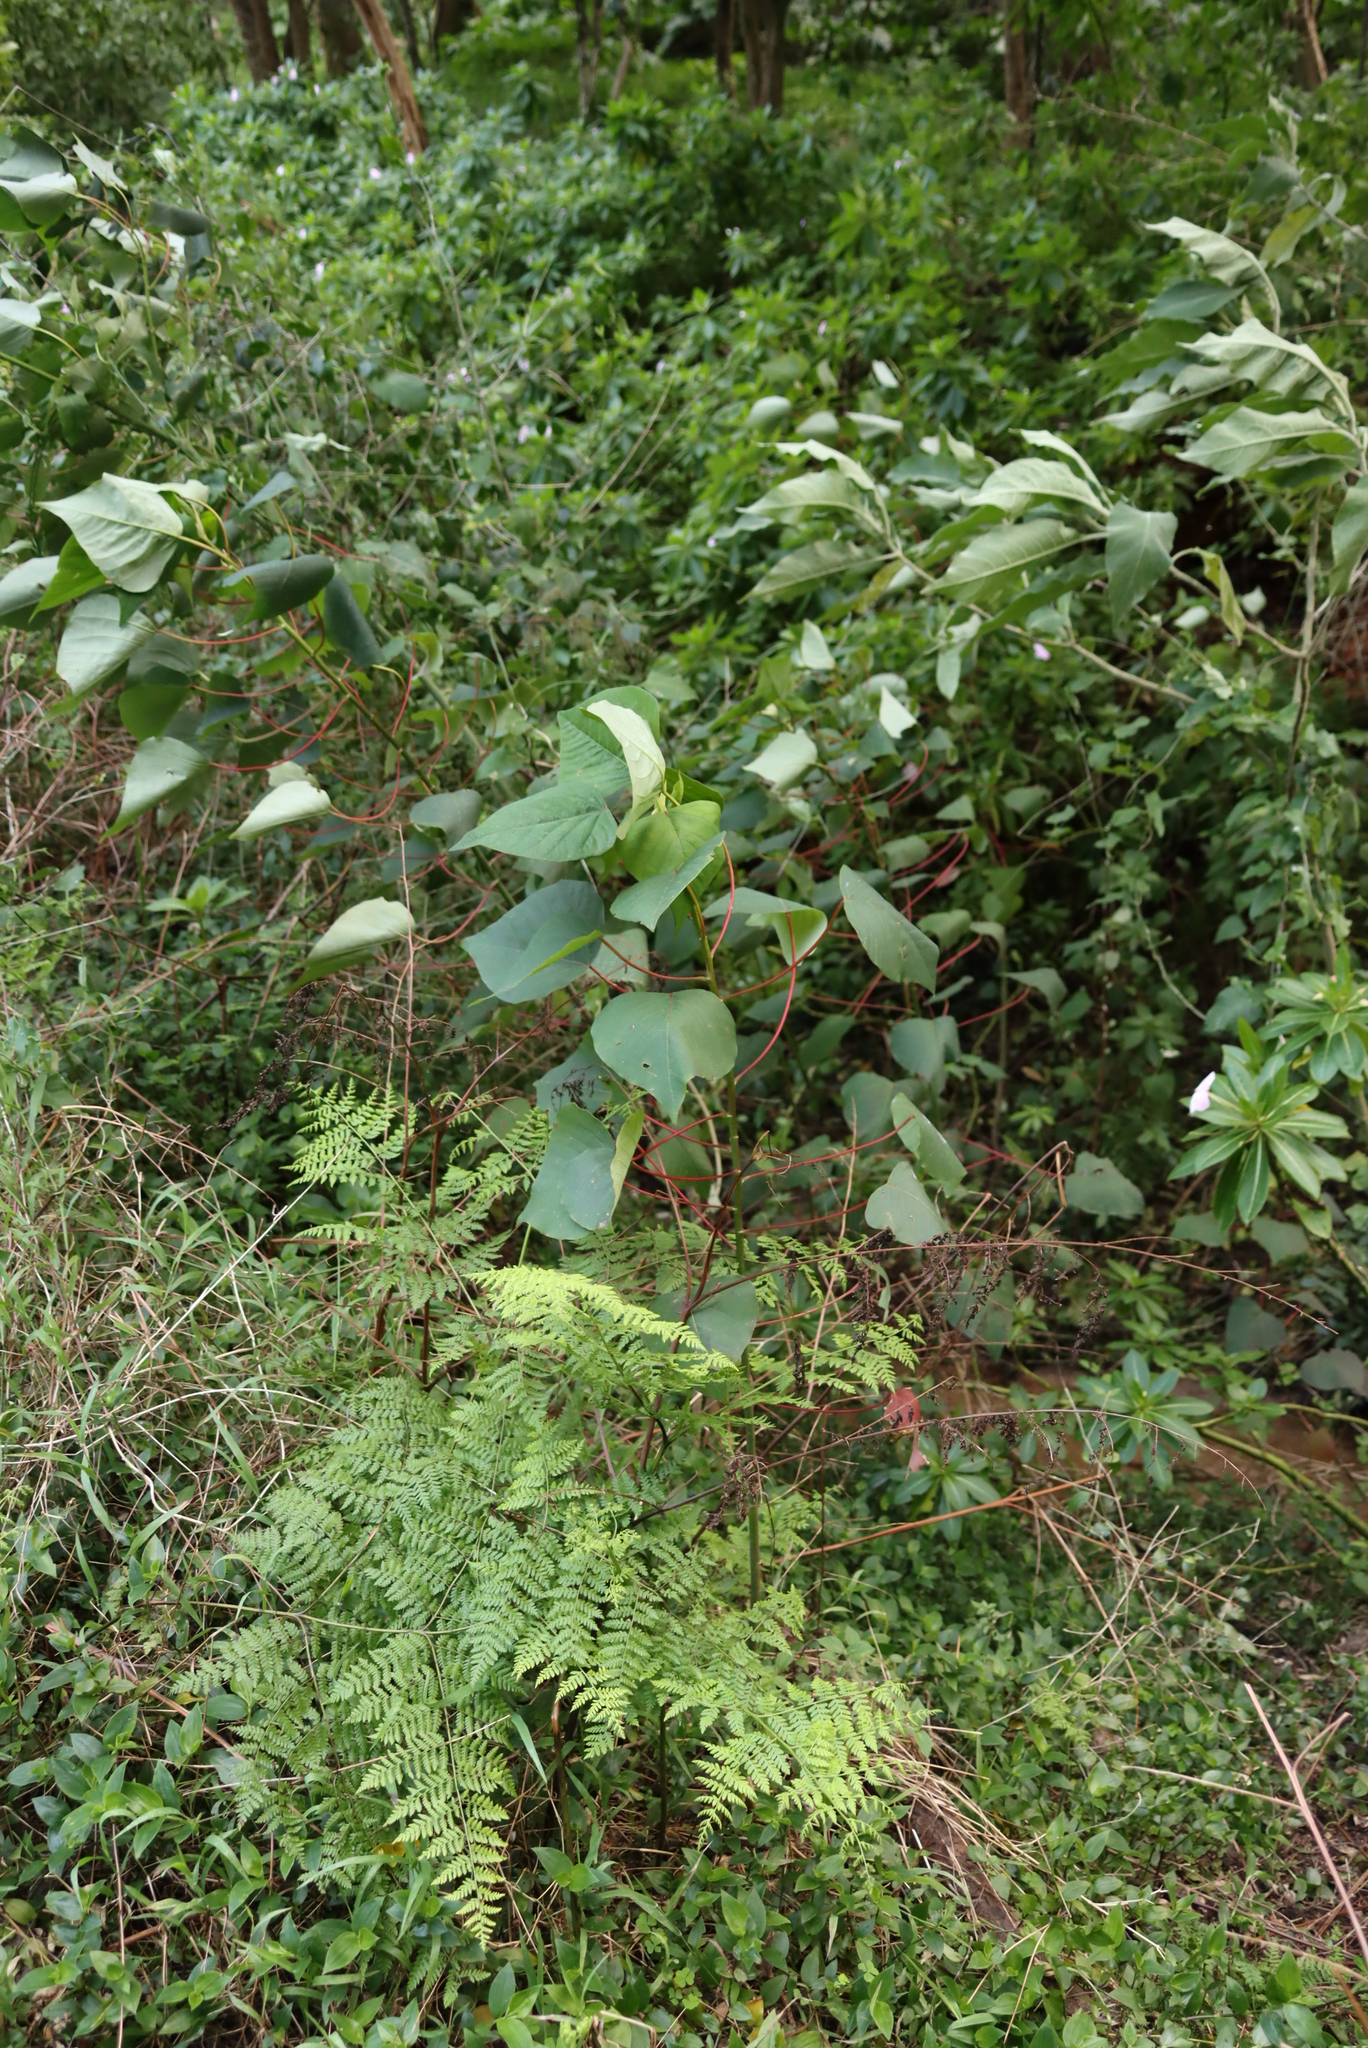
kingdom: Plantae
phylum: Tracheophyta
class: Magnoliopsida
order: Malpighiales
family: Euphorbiaceae
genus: Homalanthus
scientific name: Homalanthus populifolius
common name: Queensland poplar
